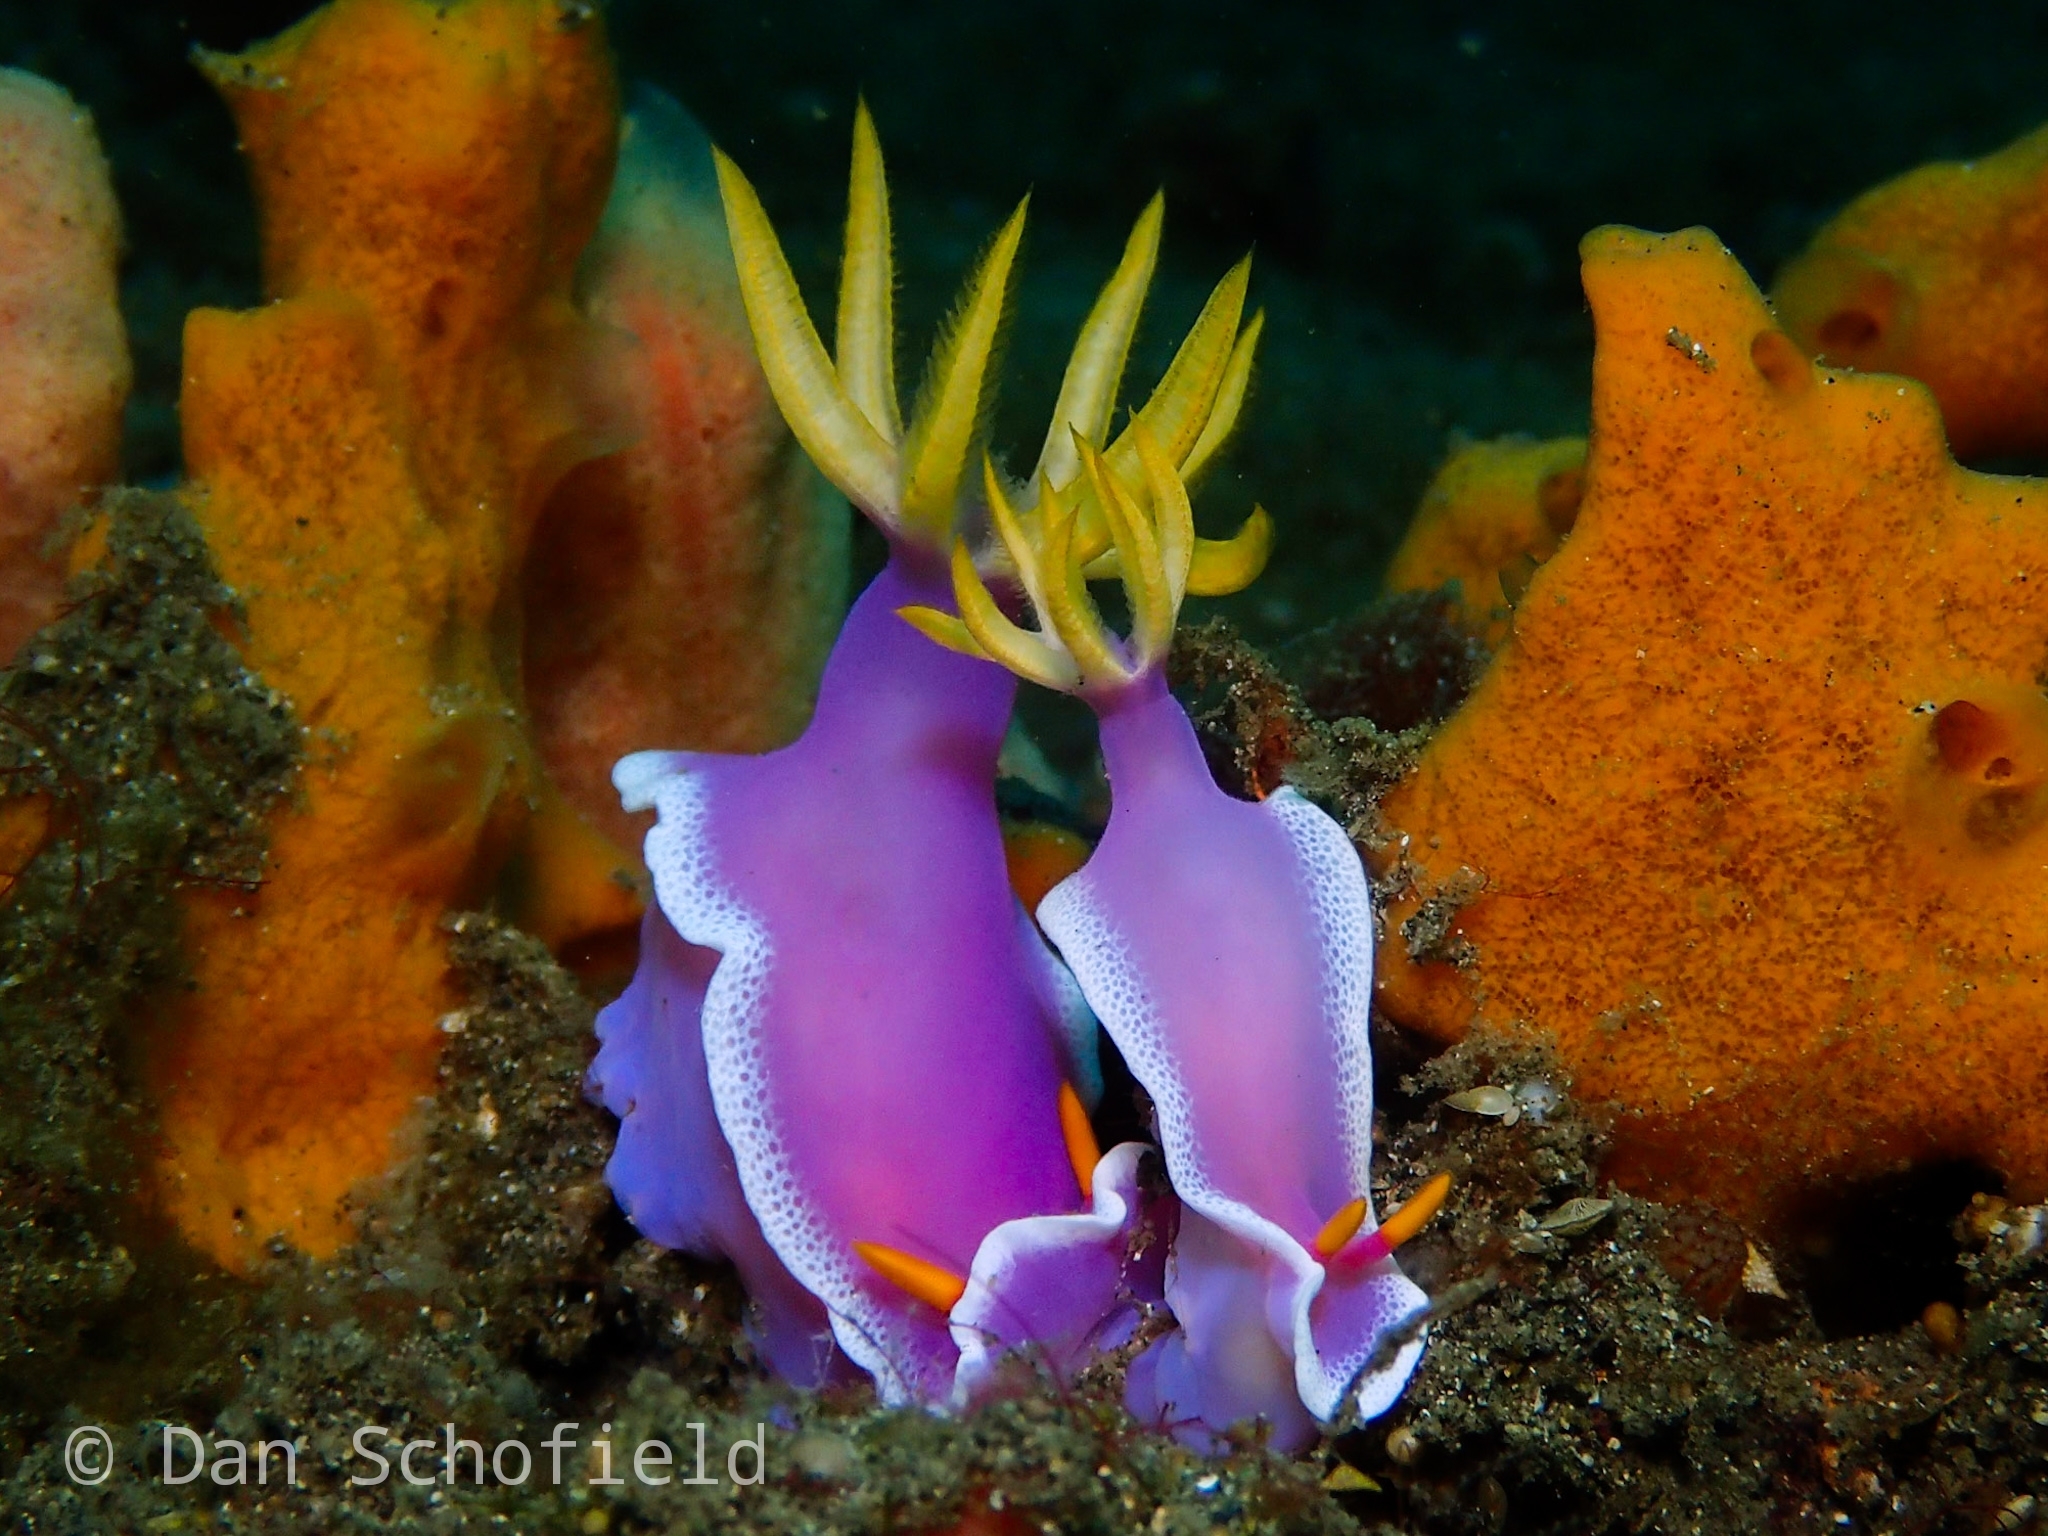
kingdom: Animalia
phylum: Mollusca
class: Gastropoda
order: Nudibranchia
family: Chromodorididae
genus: Hypselodoris
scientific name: Hypselodoris apolegma
